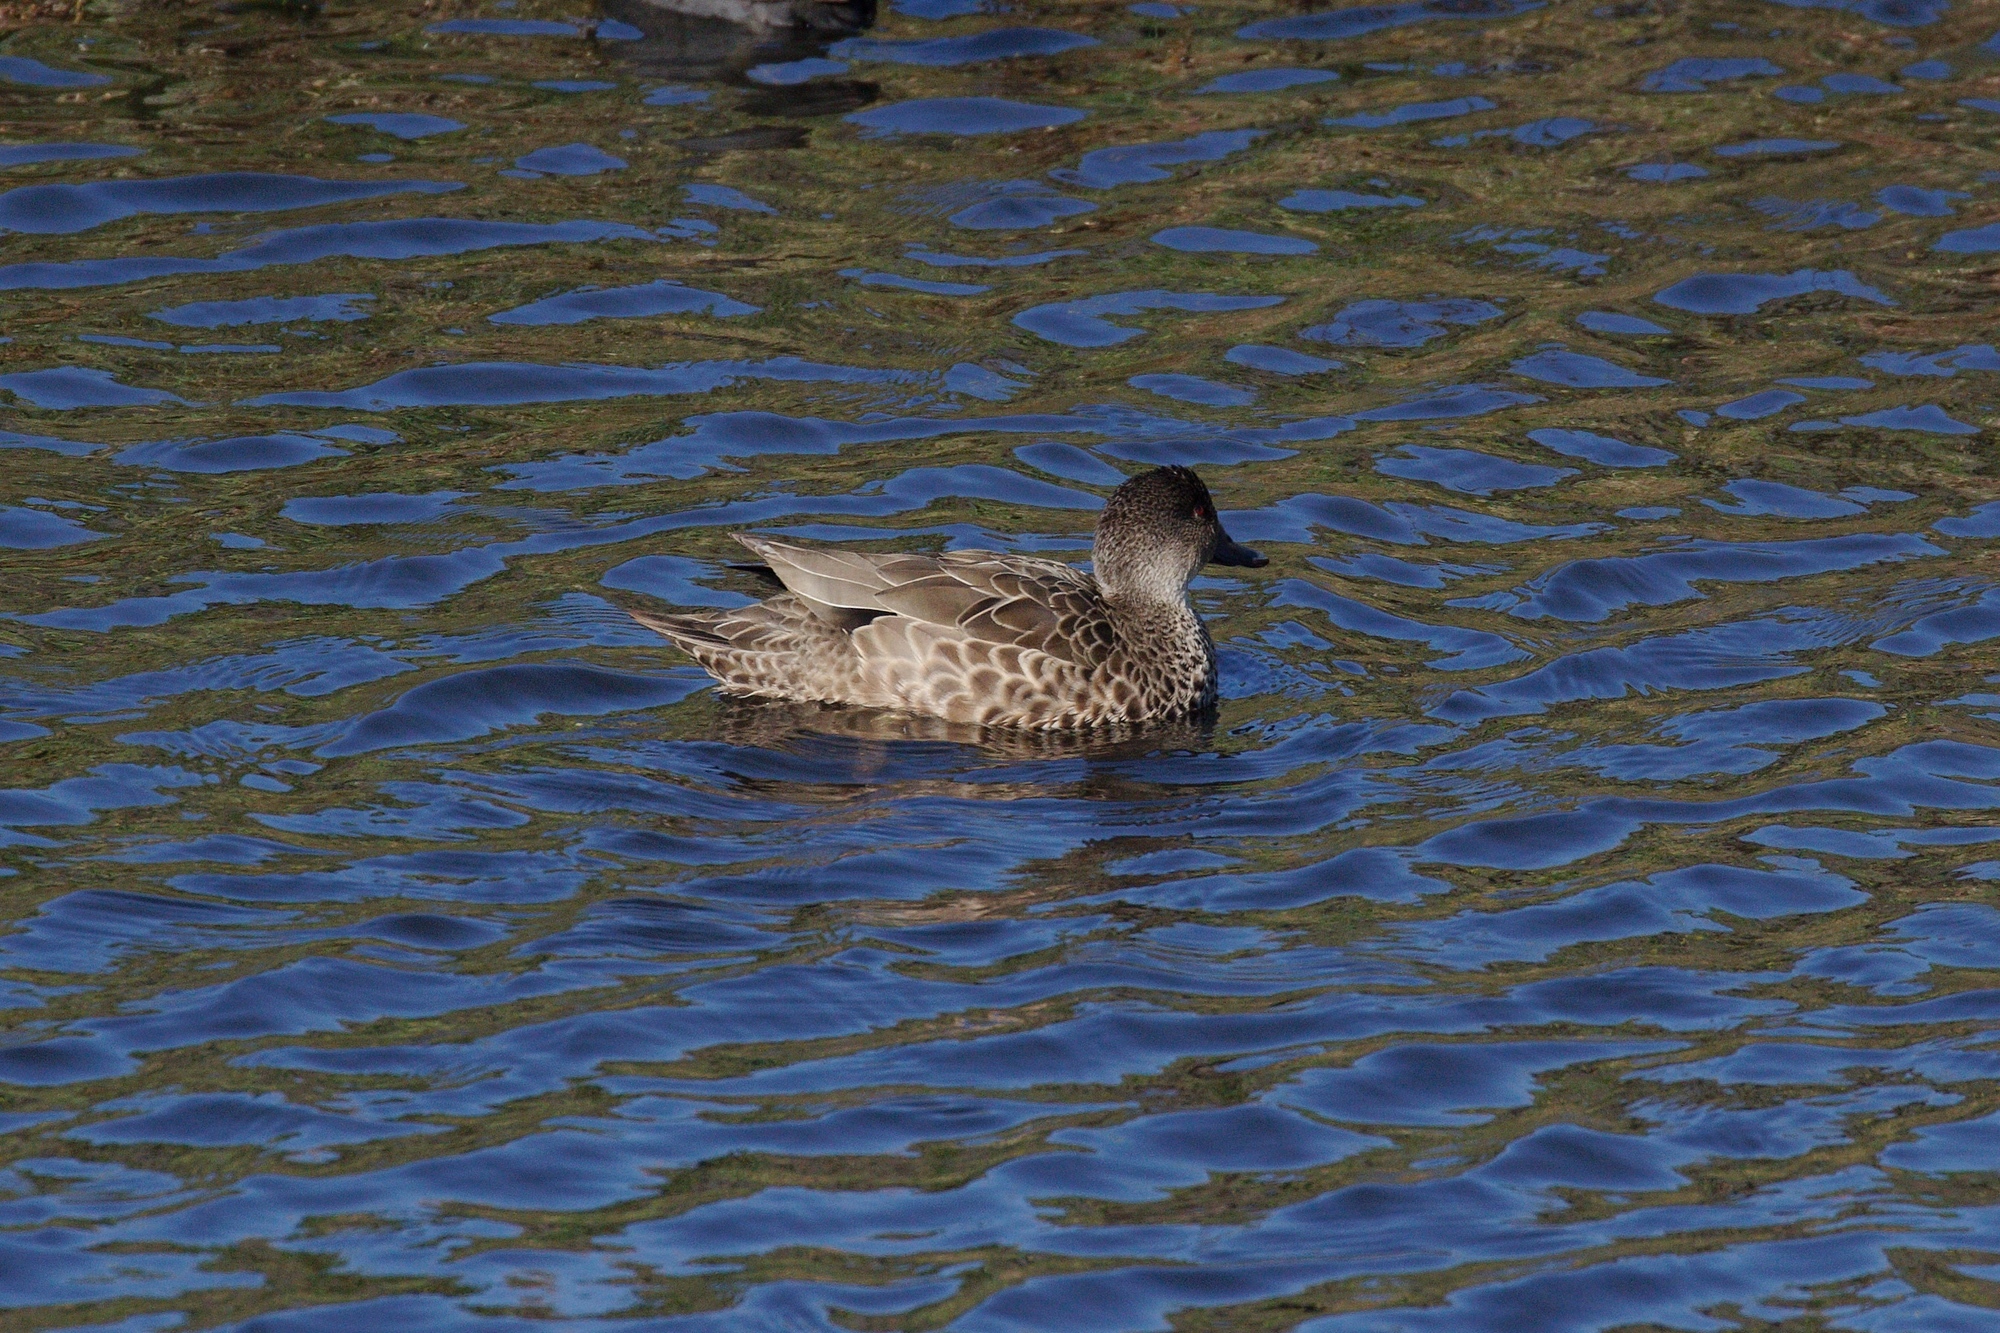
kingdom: Animalia
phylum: Chordata
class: Aves
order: Anseriformes
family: Anatidae
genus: Anas
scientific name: Anas gracilis
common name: Grey teal
